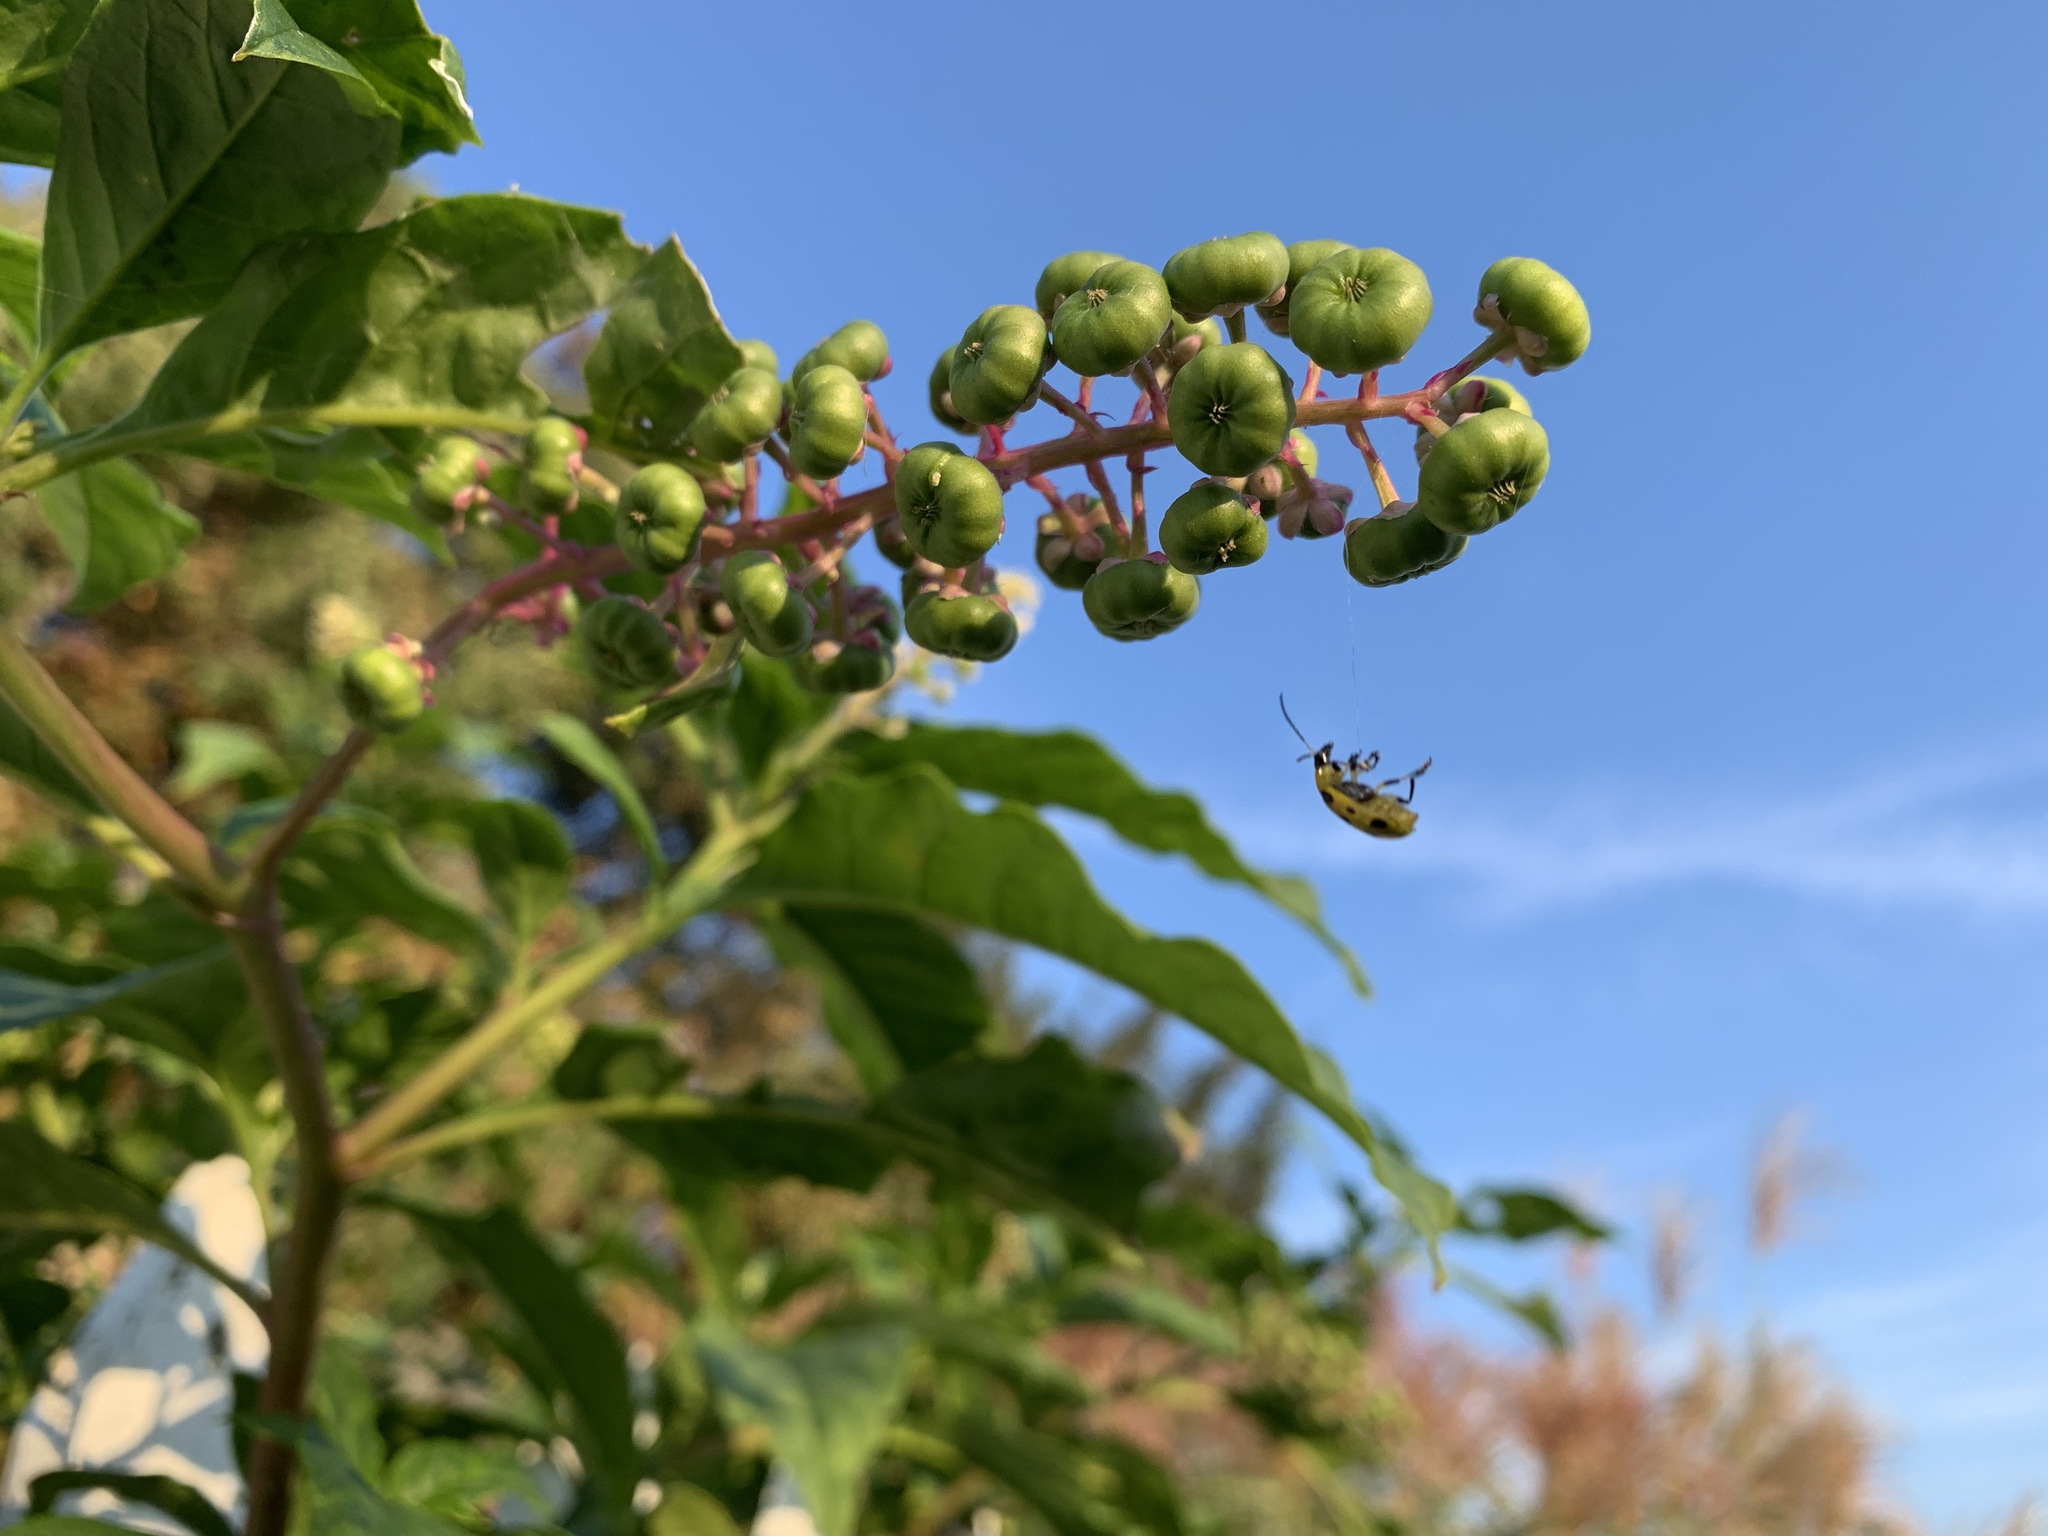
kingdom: Animalia
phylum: Arthropoda
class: Insecta
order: Coleoptera
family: Chrysomelidae
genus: Diabrotica
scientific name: Diabrotica undecimpunctata
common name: Spotted cucumber beetle
